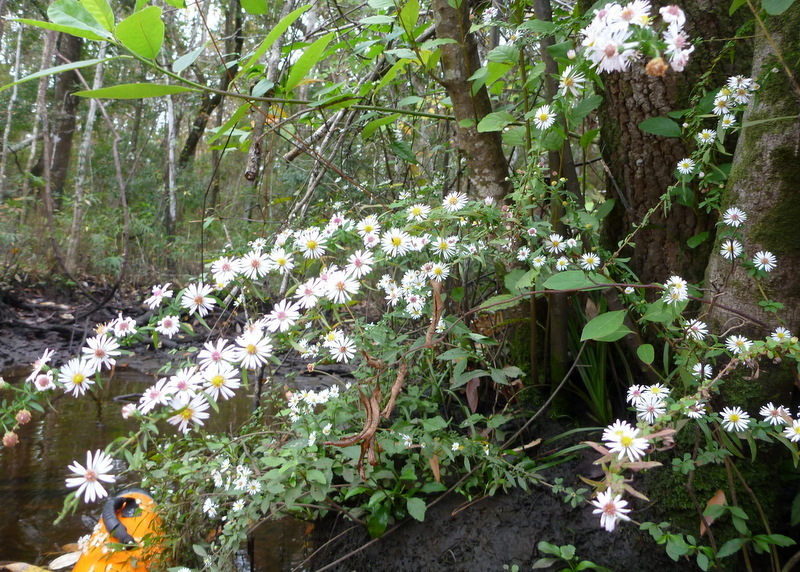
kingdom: Plantae
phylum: Tracheophyta
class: Magnoliopsida
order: Asterales
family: Asteraceae
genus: Ampelaster
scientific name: Ampelaster carolinianus
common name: Climbing aster
